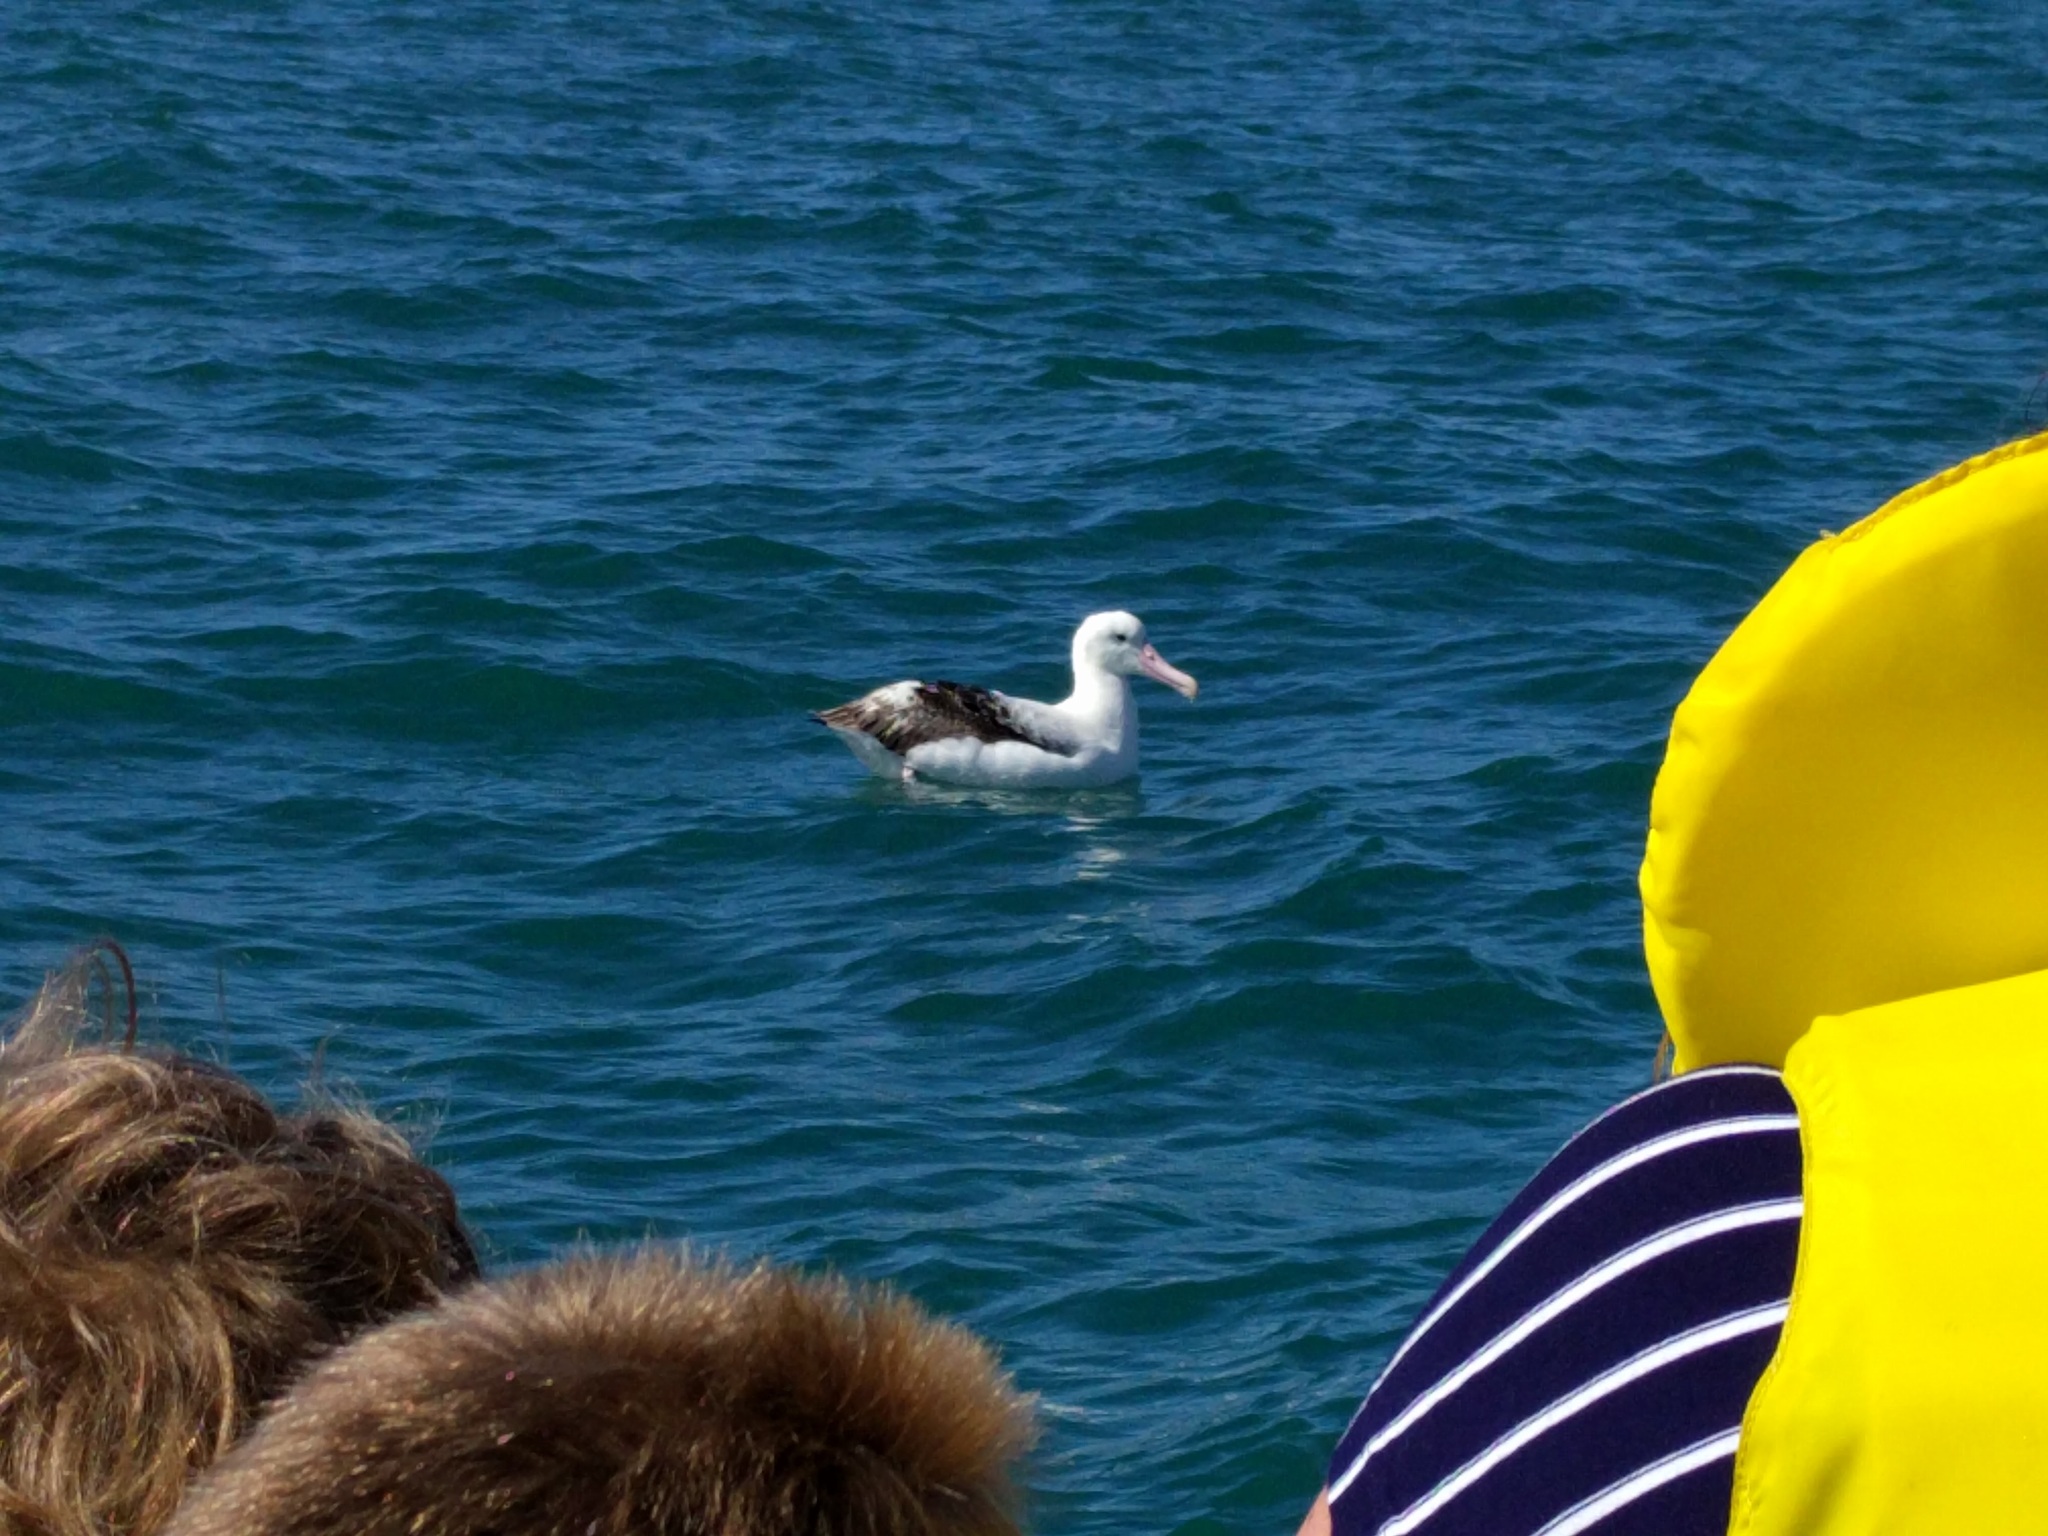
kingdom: Animalia
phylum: Chordata
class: Aves
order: Procellariiformes
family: Diomedeidae
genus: Diomedea
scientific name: Diomedea epomophora
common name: Southern royal albatross
